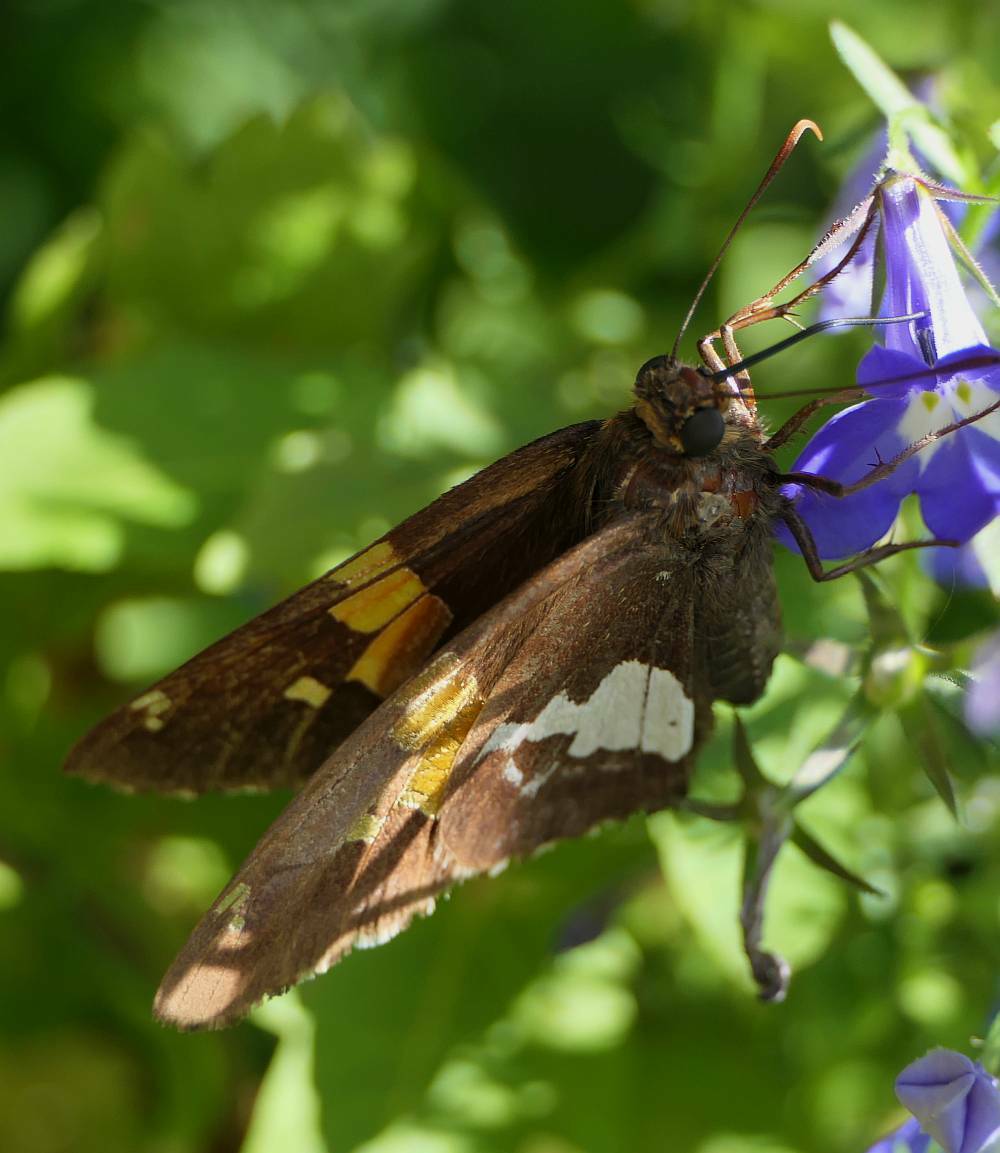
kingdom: Animalia
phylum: Arthropoda
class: Insecta
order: Lepidoptera
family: Hesperiidae
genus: Epargyreus
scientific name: Epargyreus clarus
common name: Silver-spotted skipper
